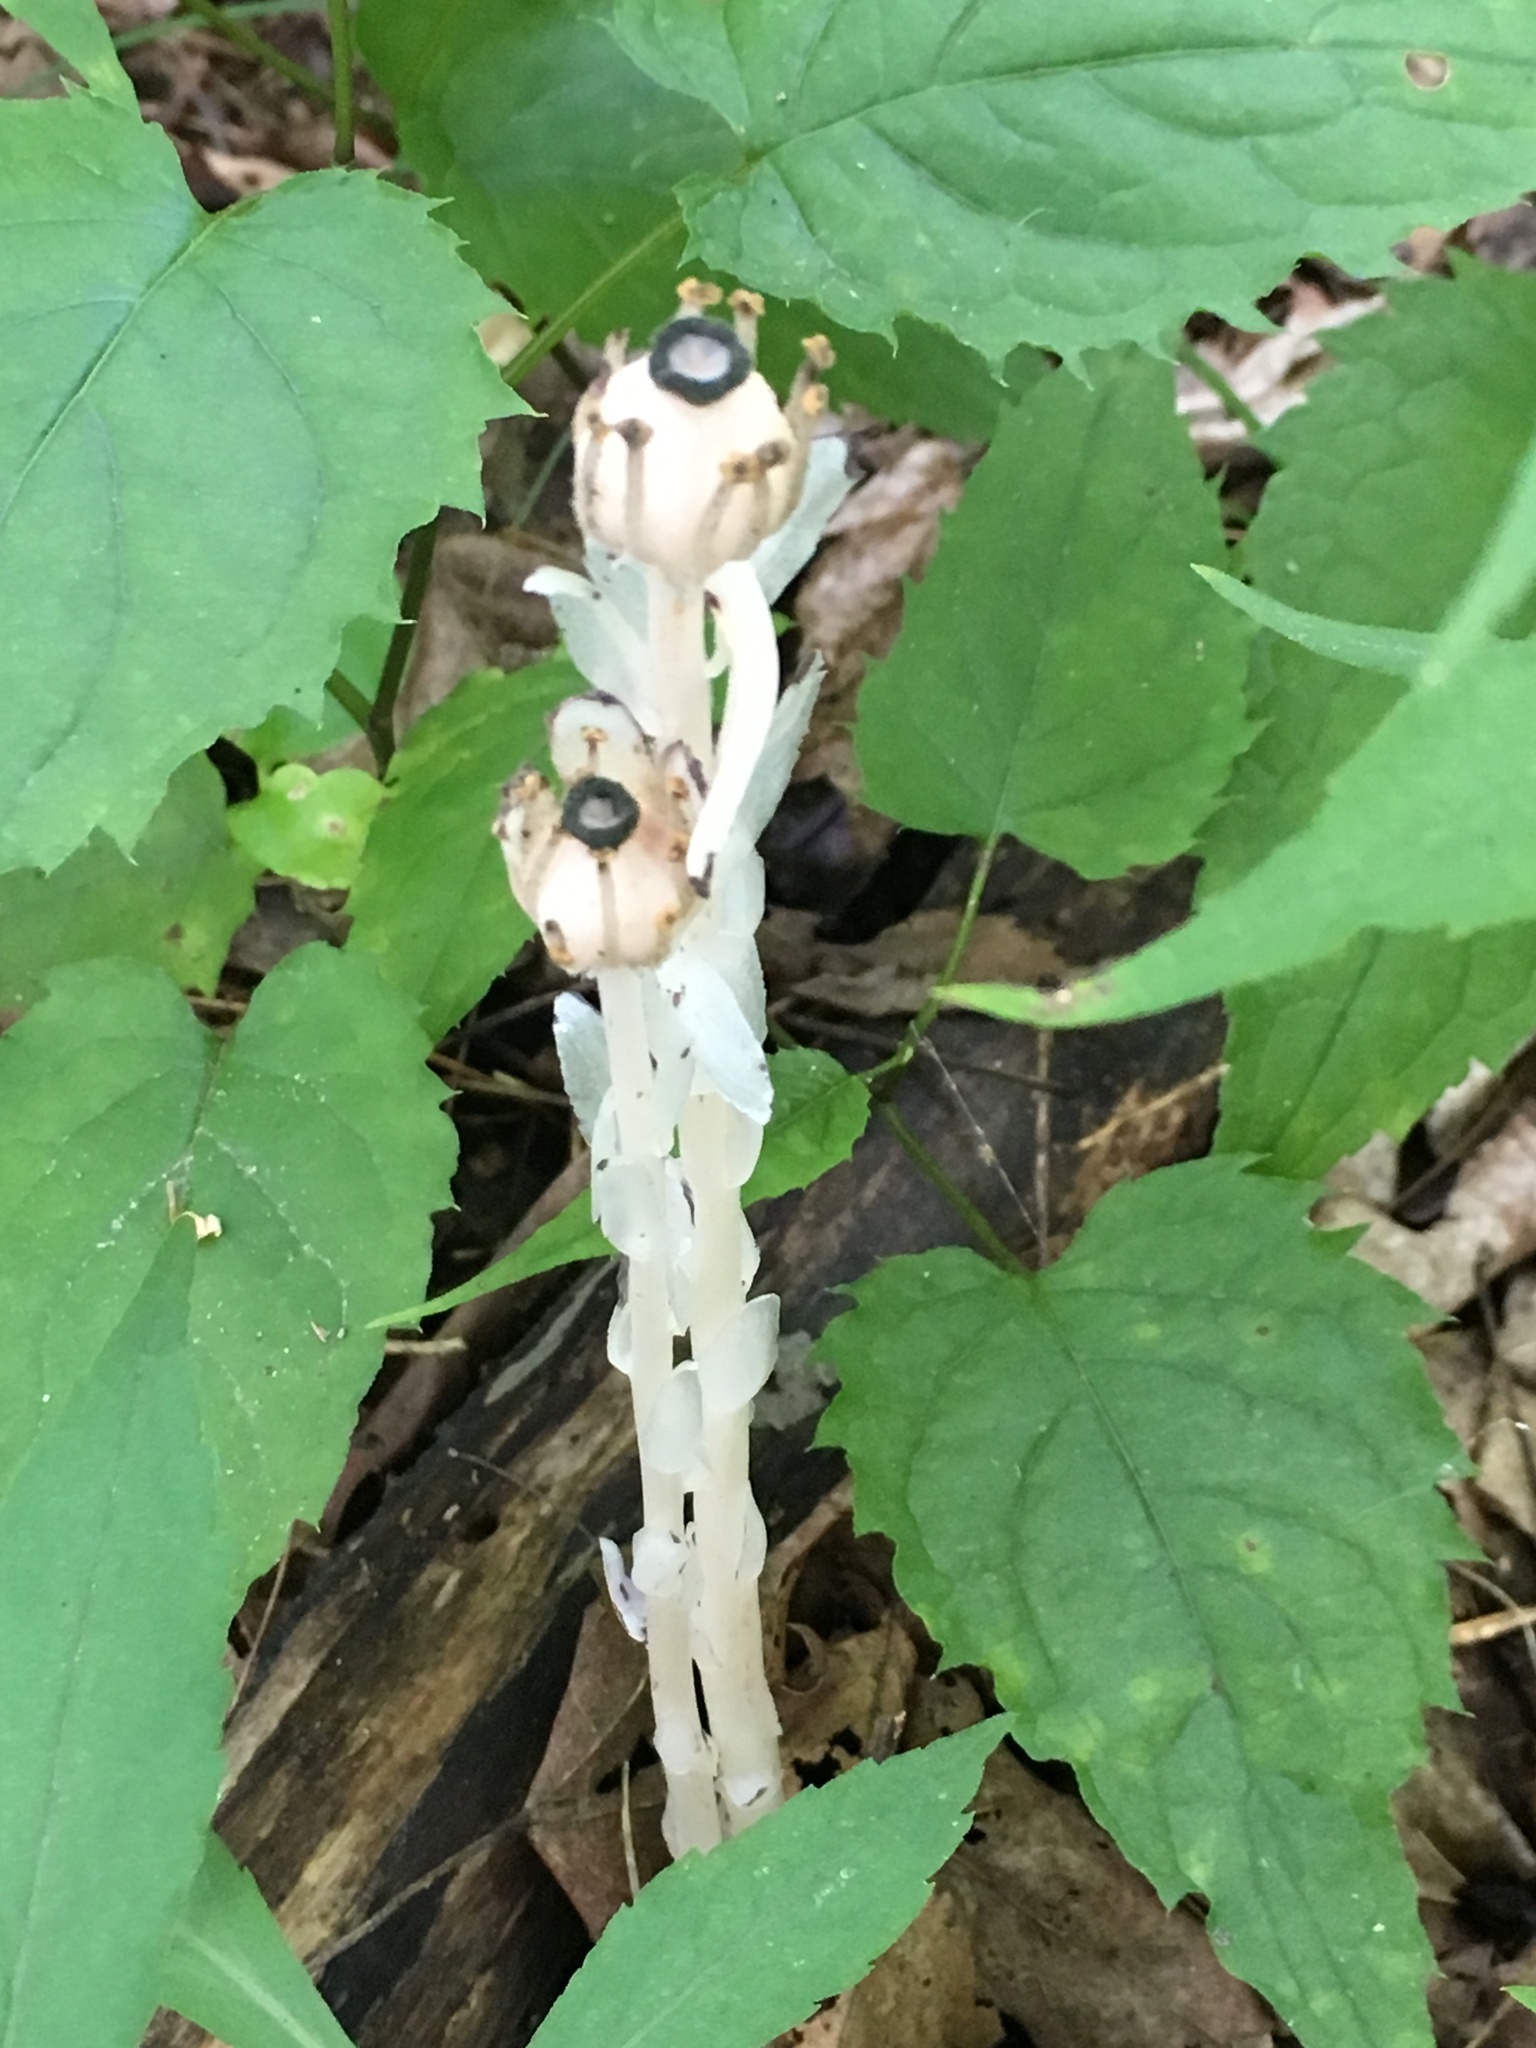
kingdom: Plantae
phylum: Tracheophyta
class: Magnoliopsida
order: Ericales
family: Ericaceae
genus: Monotropa
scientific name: Monotropa uniflora
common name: Convulsion root
